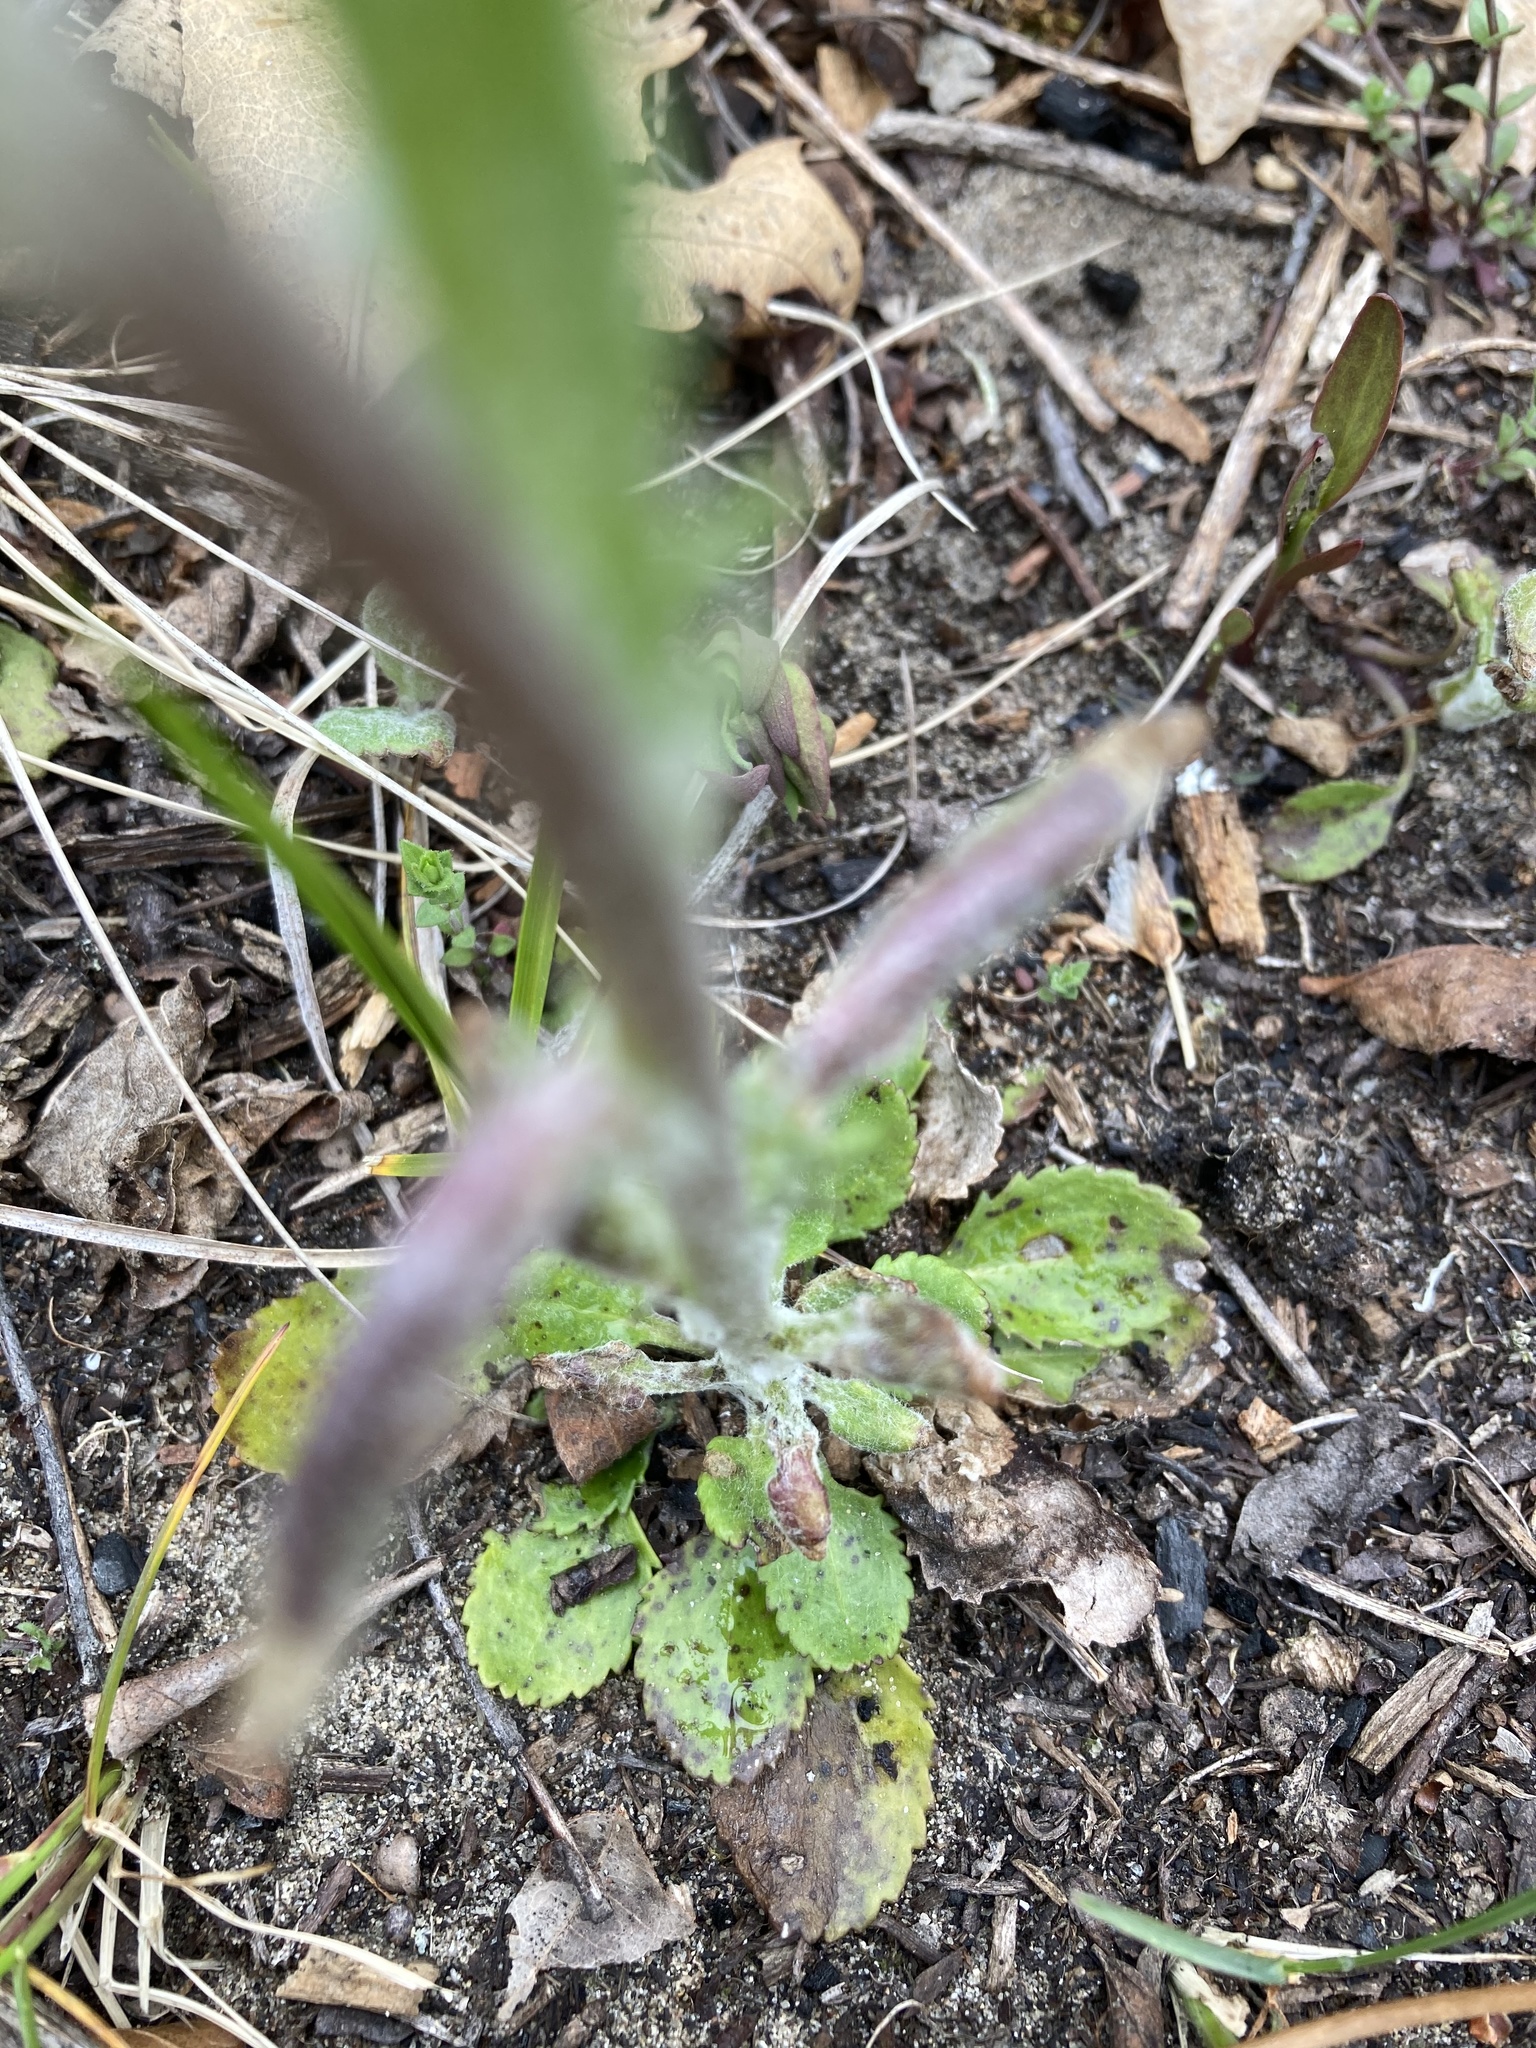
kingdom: Plantae
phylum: Tracheophyta
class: Magnoliopsida
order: Asterales
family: Asteraceae
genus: Packera
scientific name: Packera paupercula
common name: Balsam groundsel
